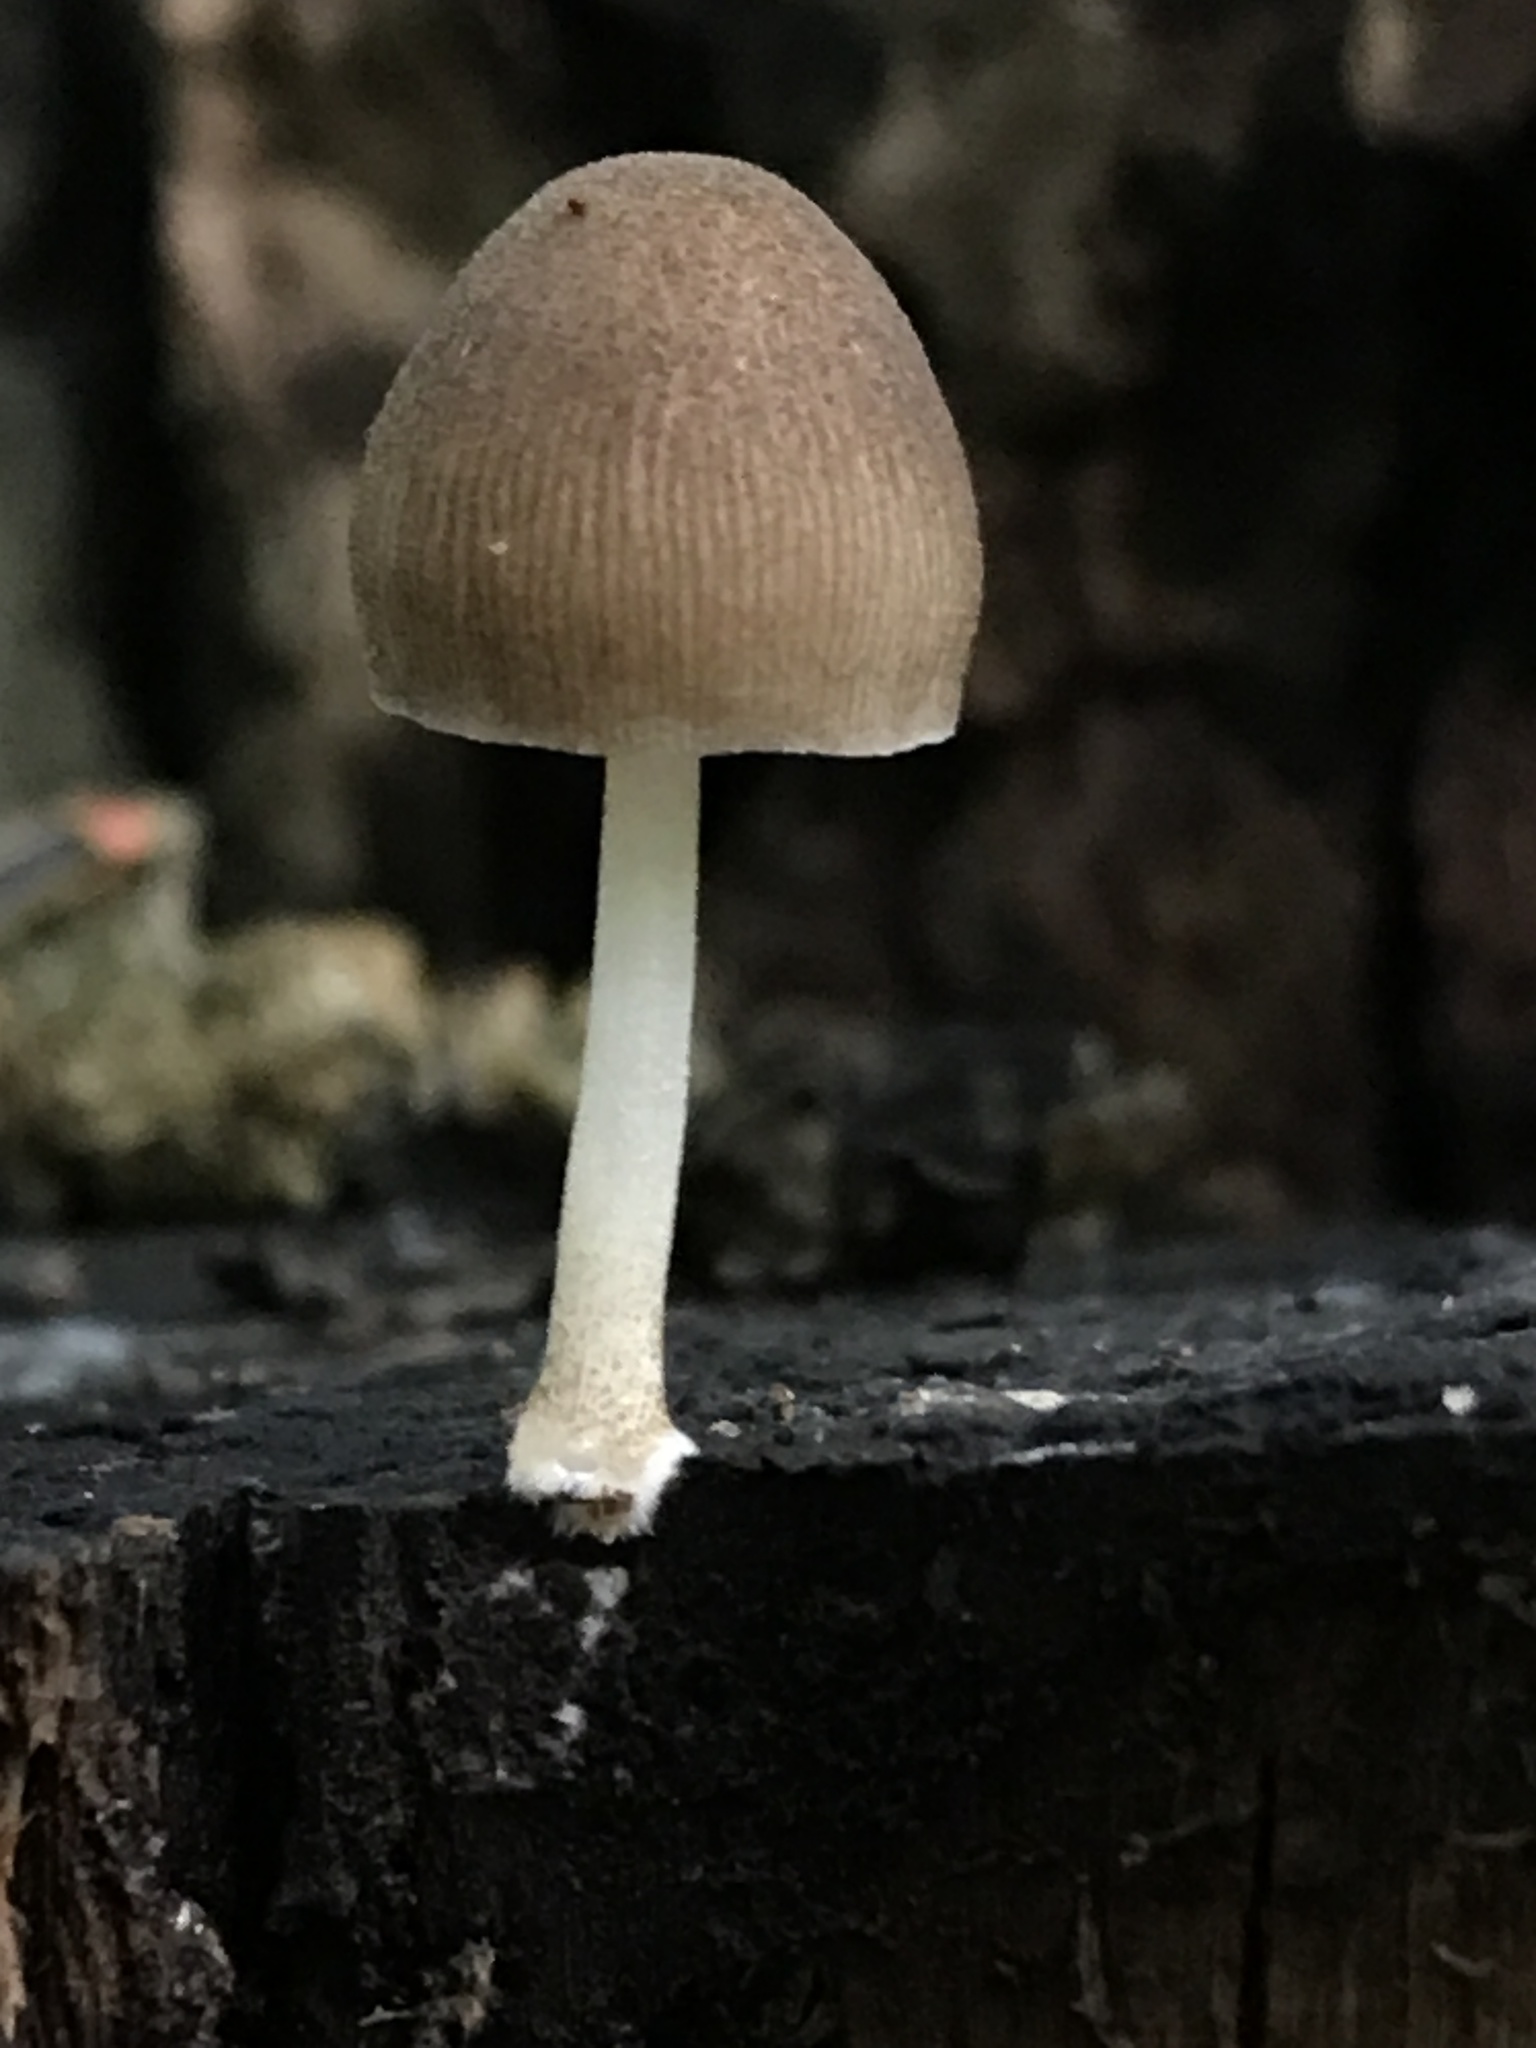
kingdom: Fungi
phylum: Basidiomycota
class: Agaricomycetes
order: Agaricales
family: Pluteaceae
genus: Pluteus
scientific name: Pluteus longistriatus
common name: Pleated pluteus
